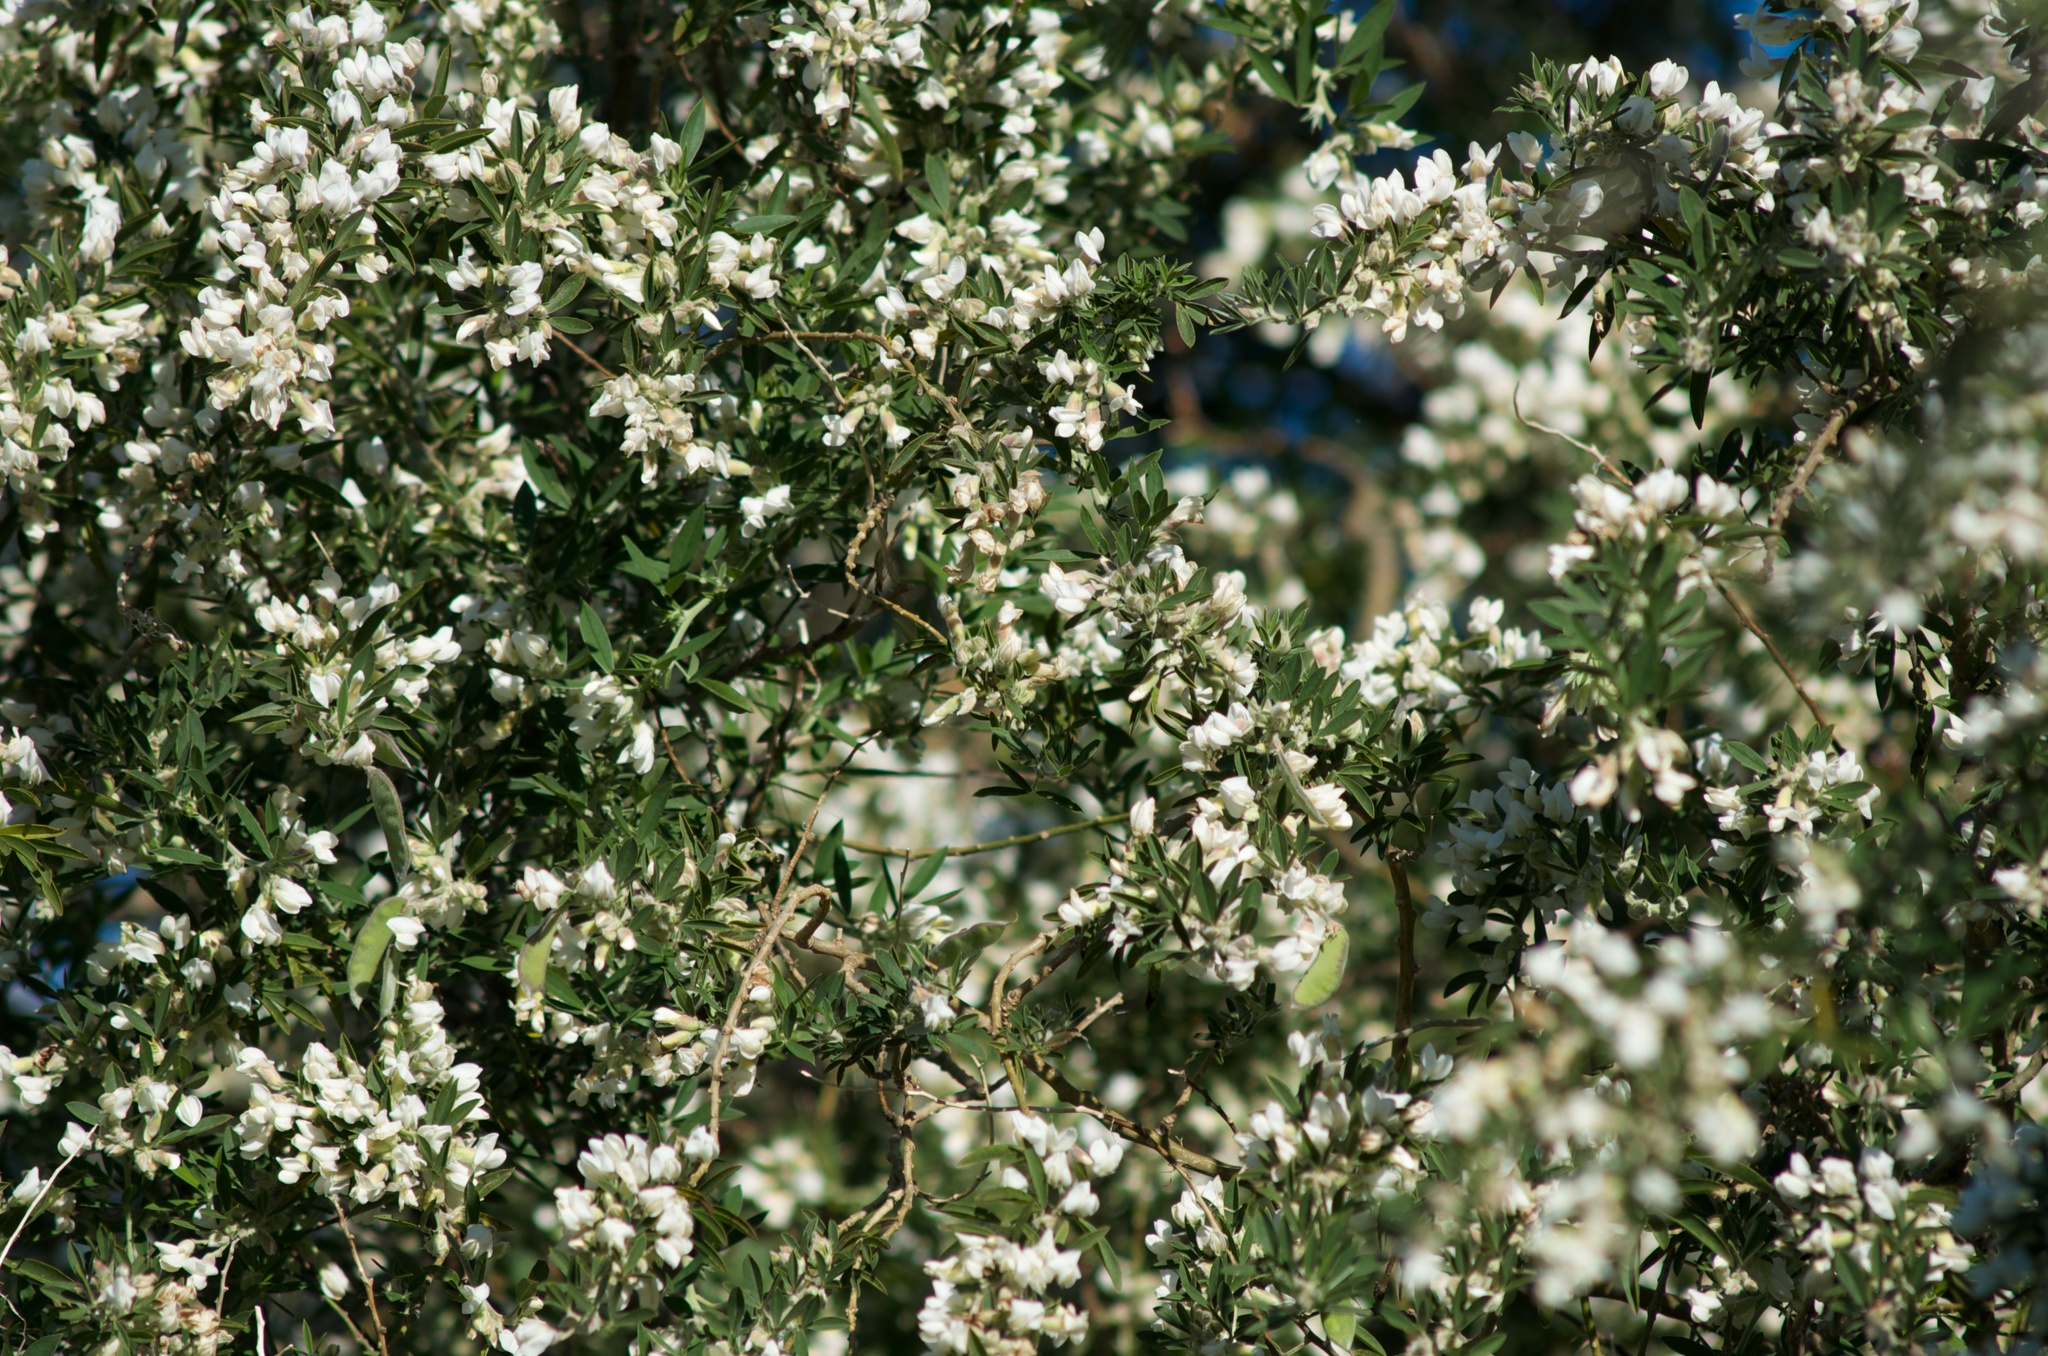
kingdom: Plantae
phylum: Tracheophyta
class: Magnoliopsida
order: Fabales
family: Fabaceae
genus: Chamaecytisus
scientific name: Chamaecytisus prolifer
